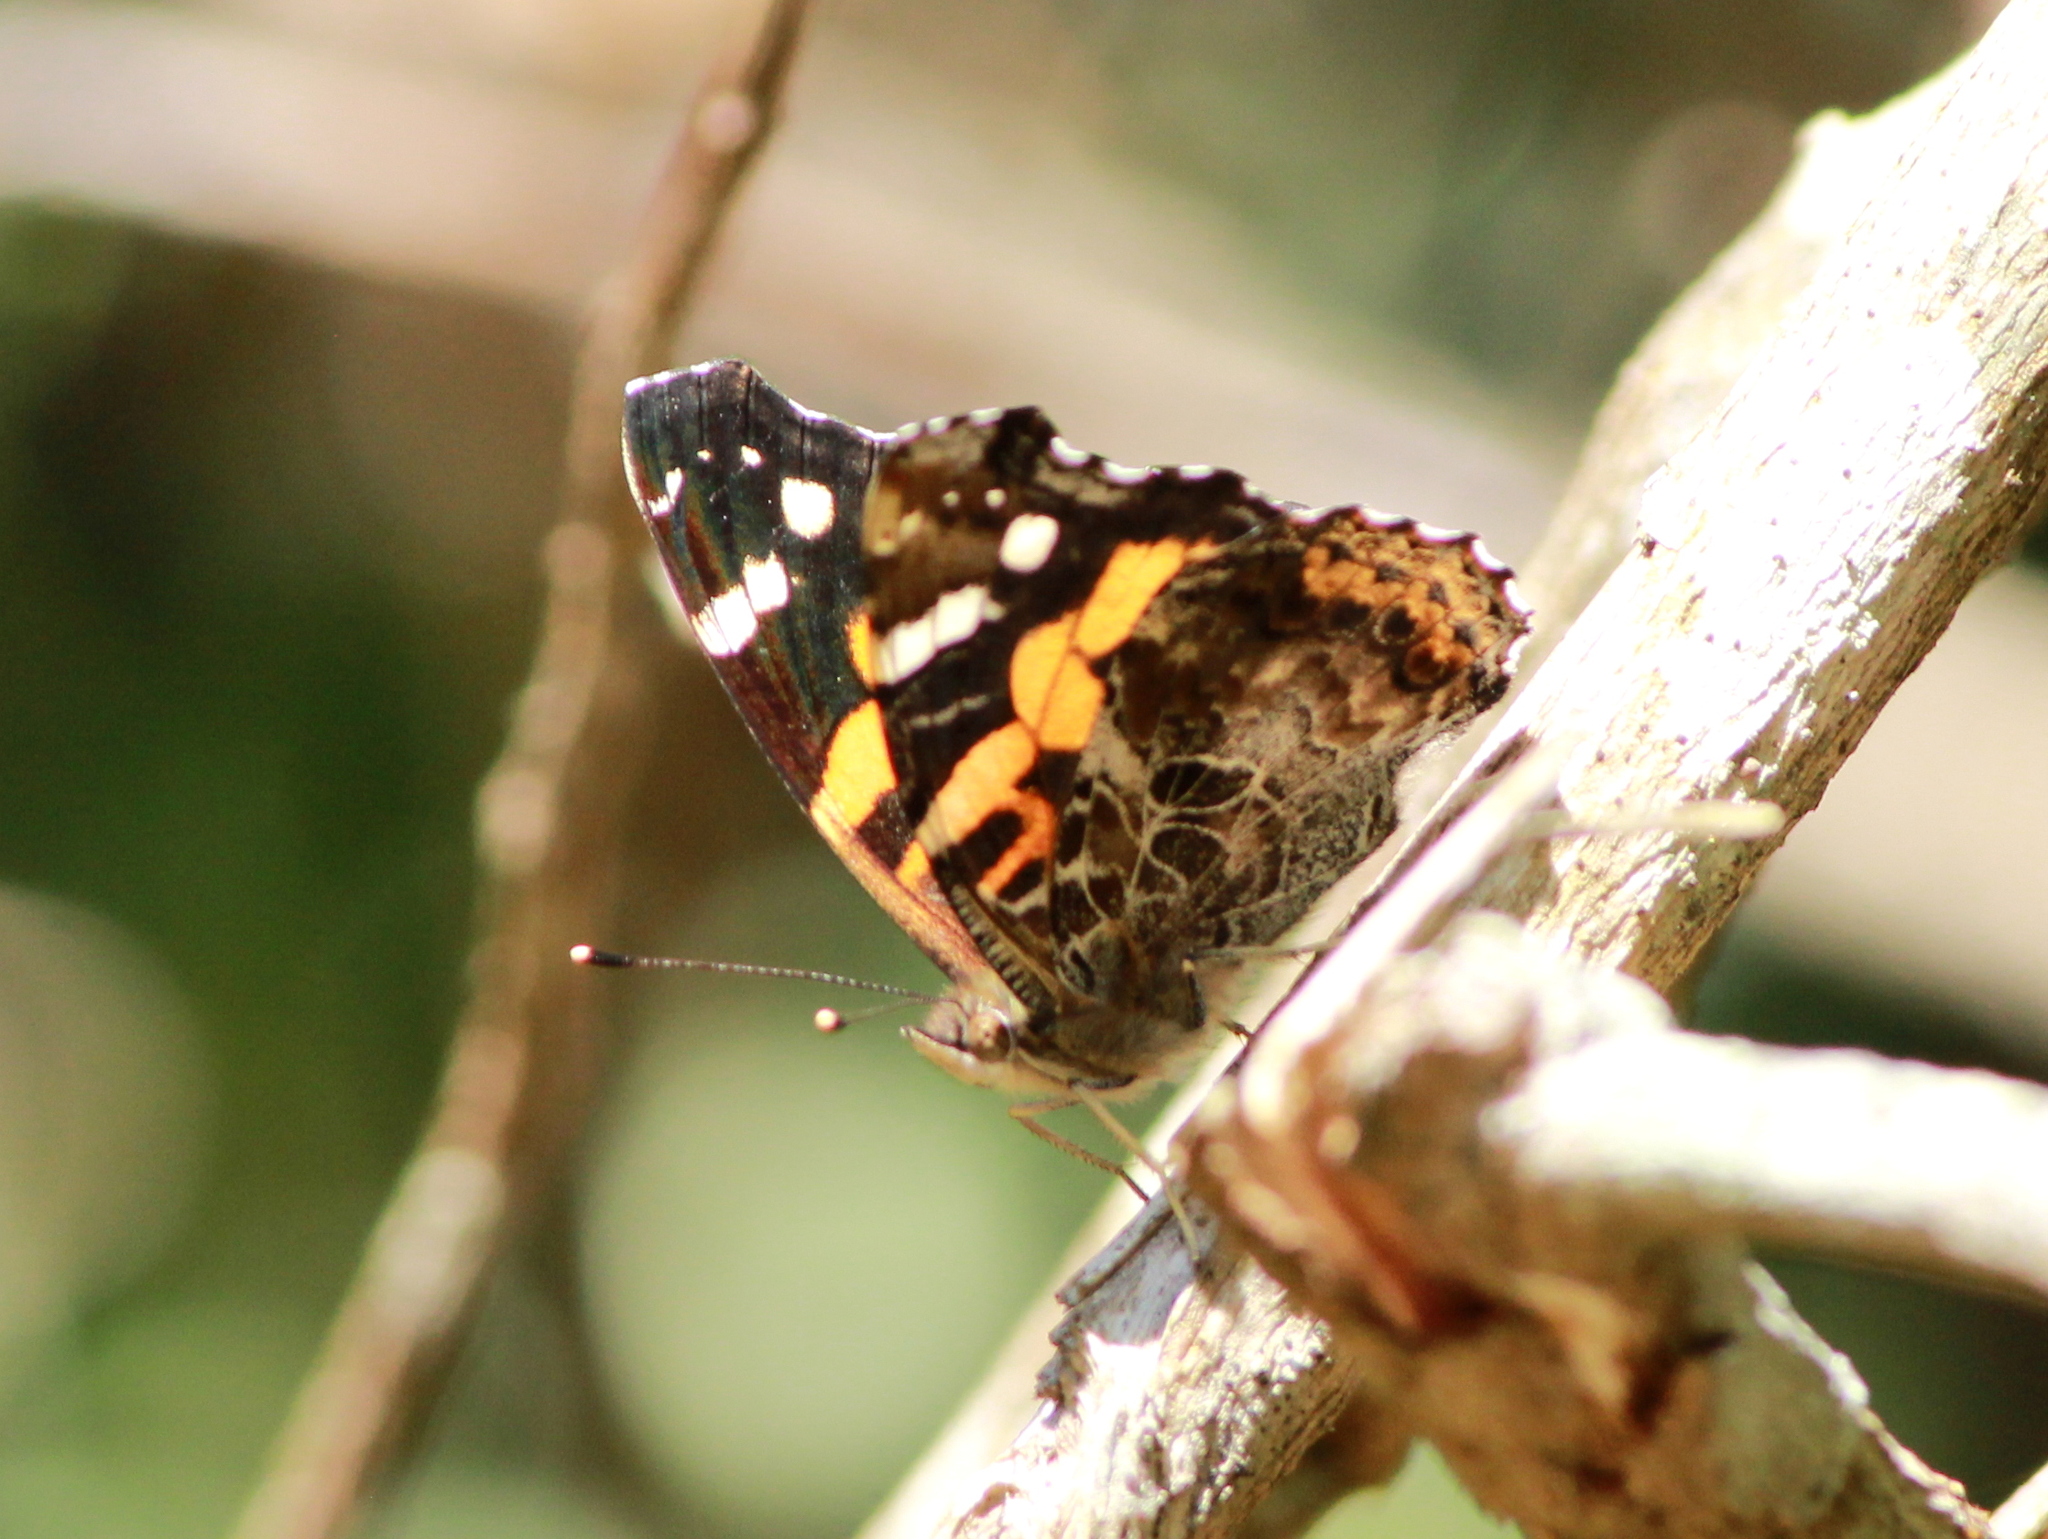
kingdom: Animalia
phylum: Arthropoda
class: Insecta
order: Lepidoptera
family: Nymphalidae
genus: Vanessa
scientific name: Vanessa indica
